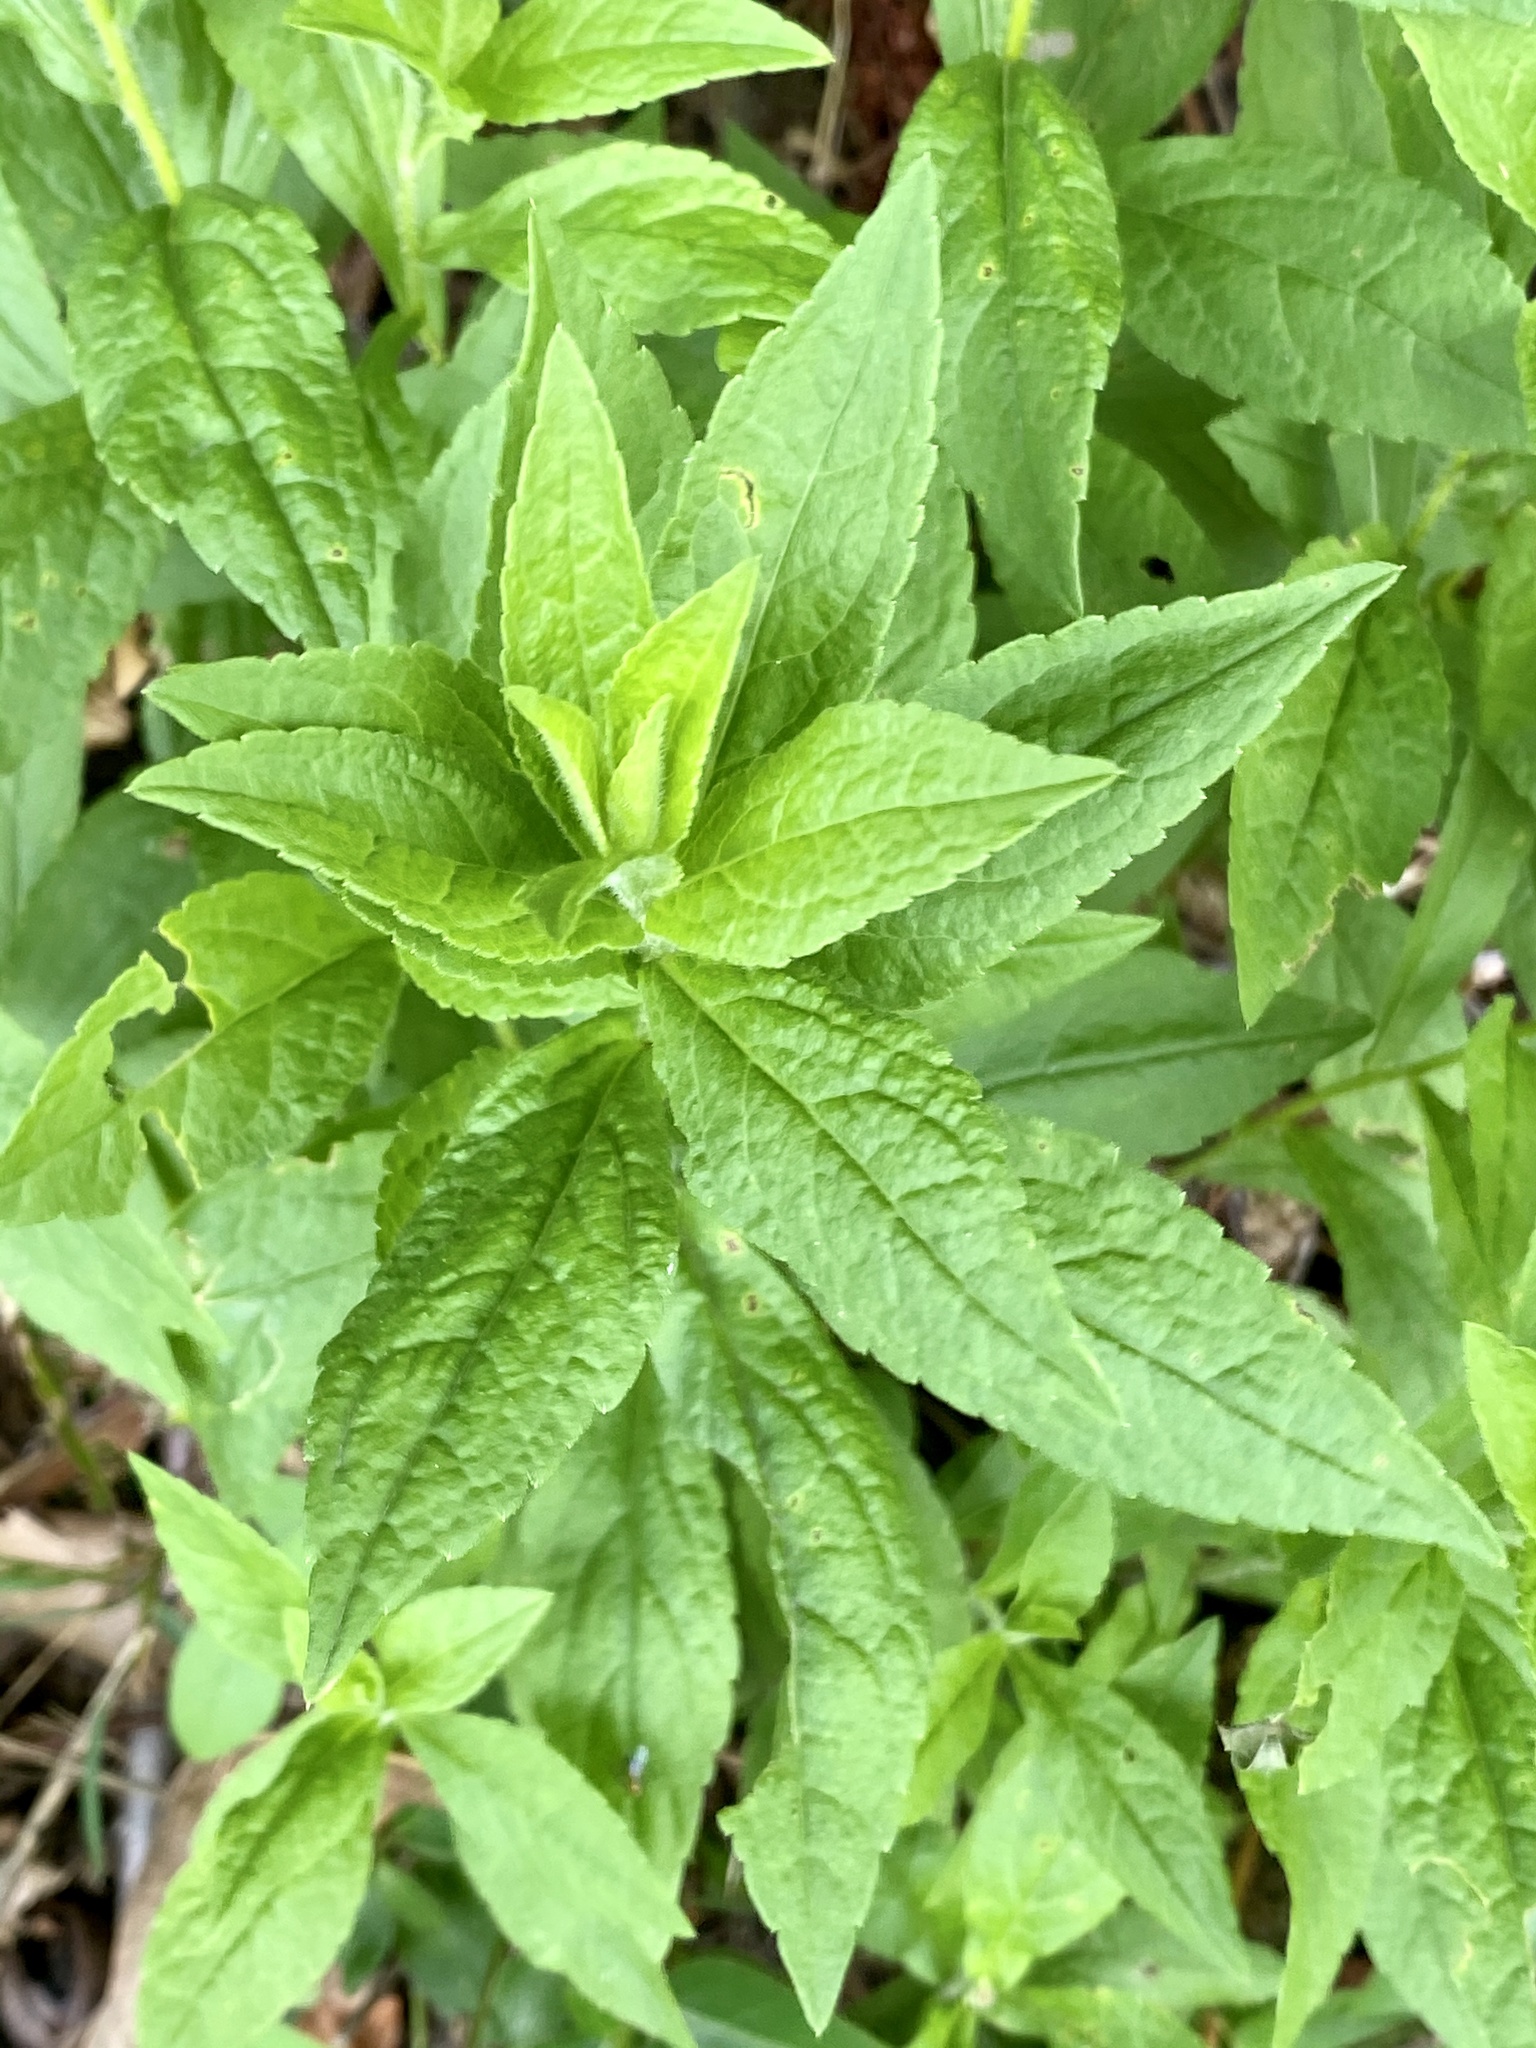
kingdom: Plantae
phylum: Tracheophyta
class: Magnoliopsida
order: Asterales
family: Asteraceae
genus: Solidago
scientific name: Solidago rugosa
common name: Rough-stemmed goldenrod
